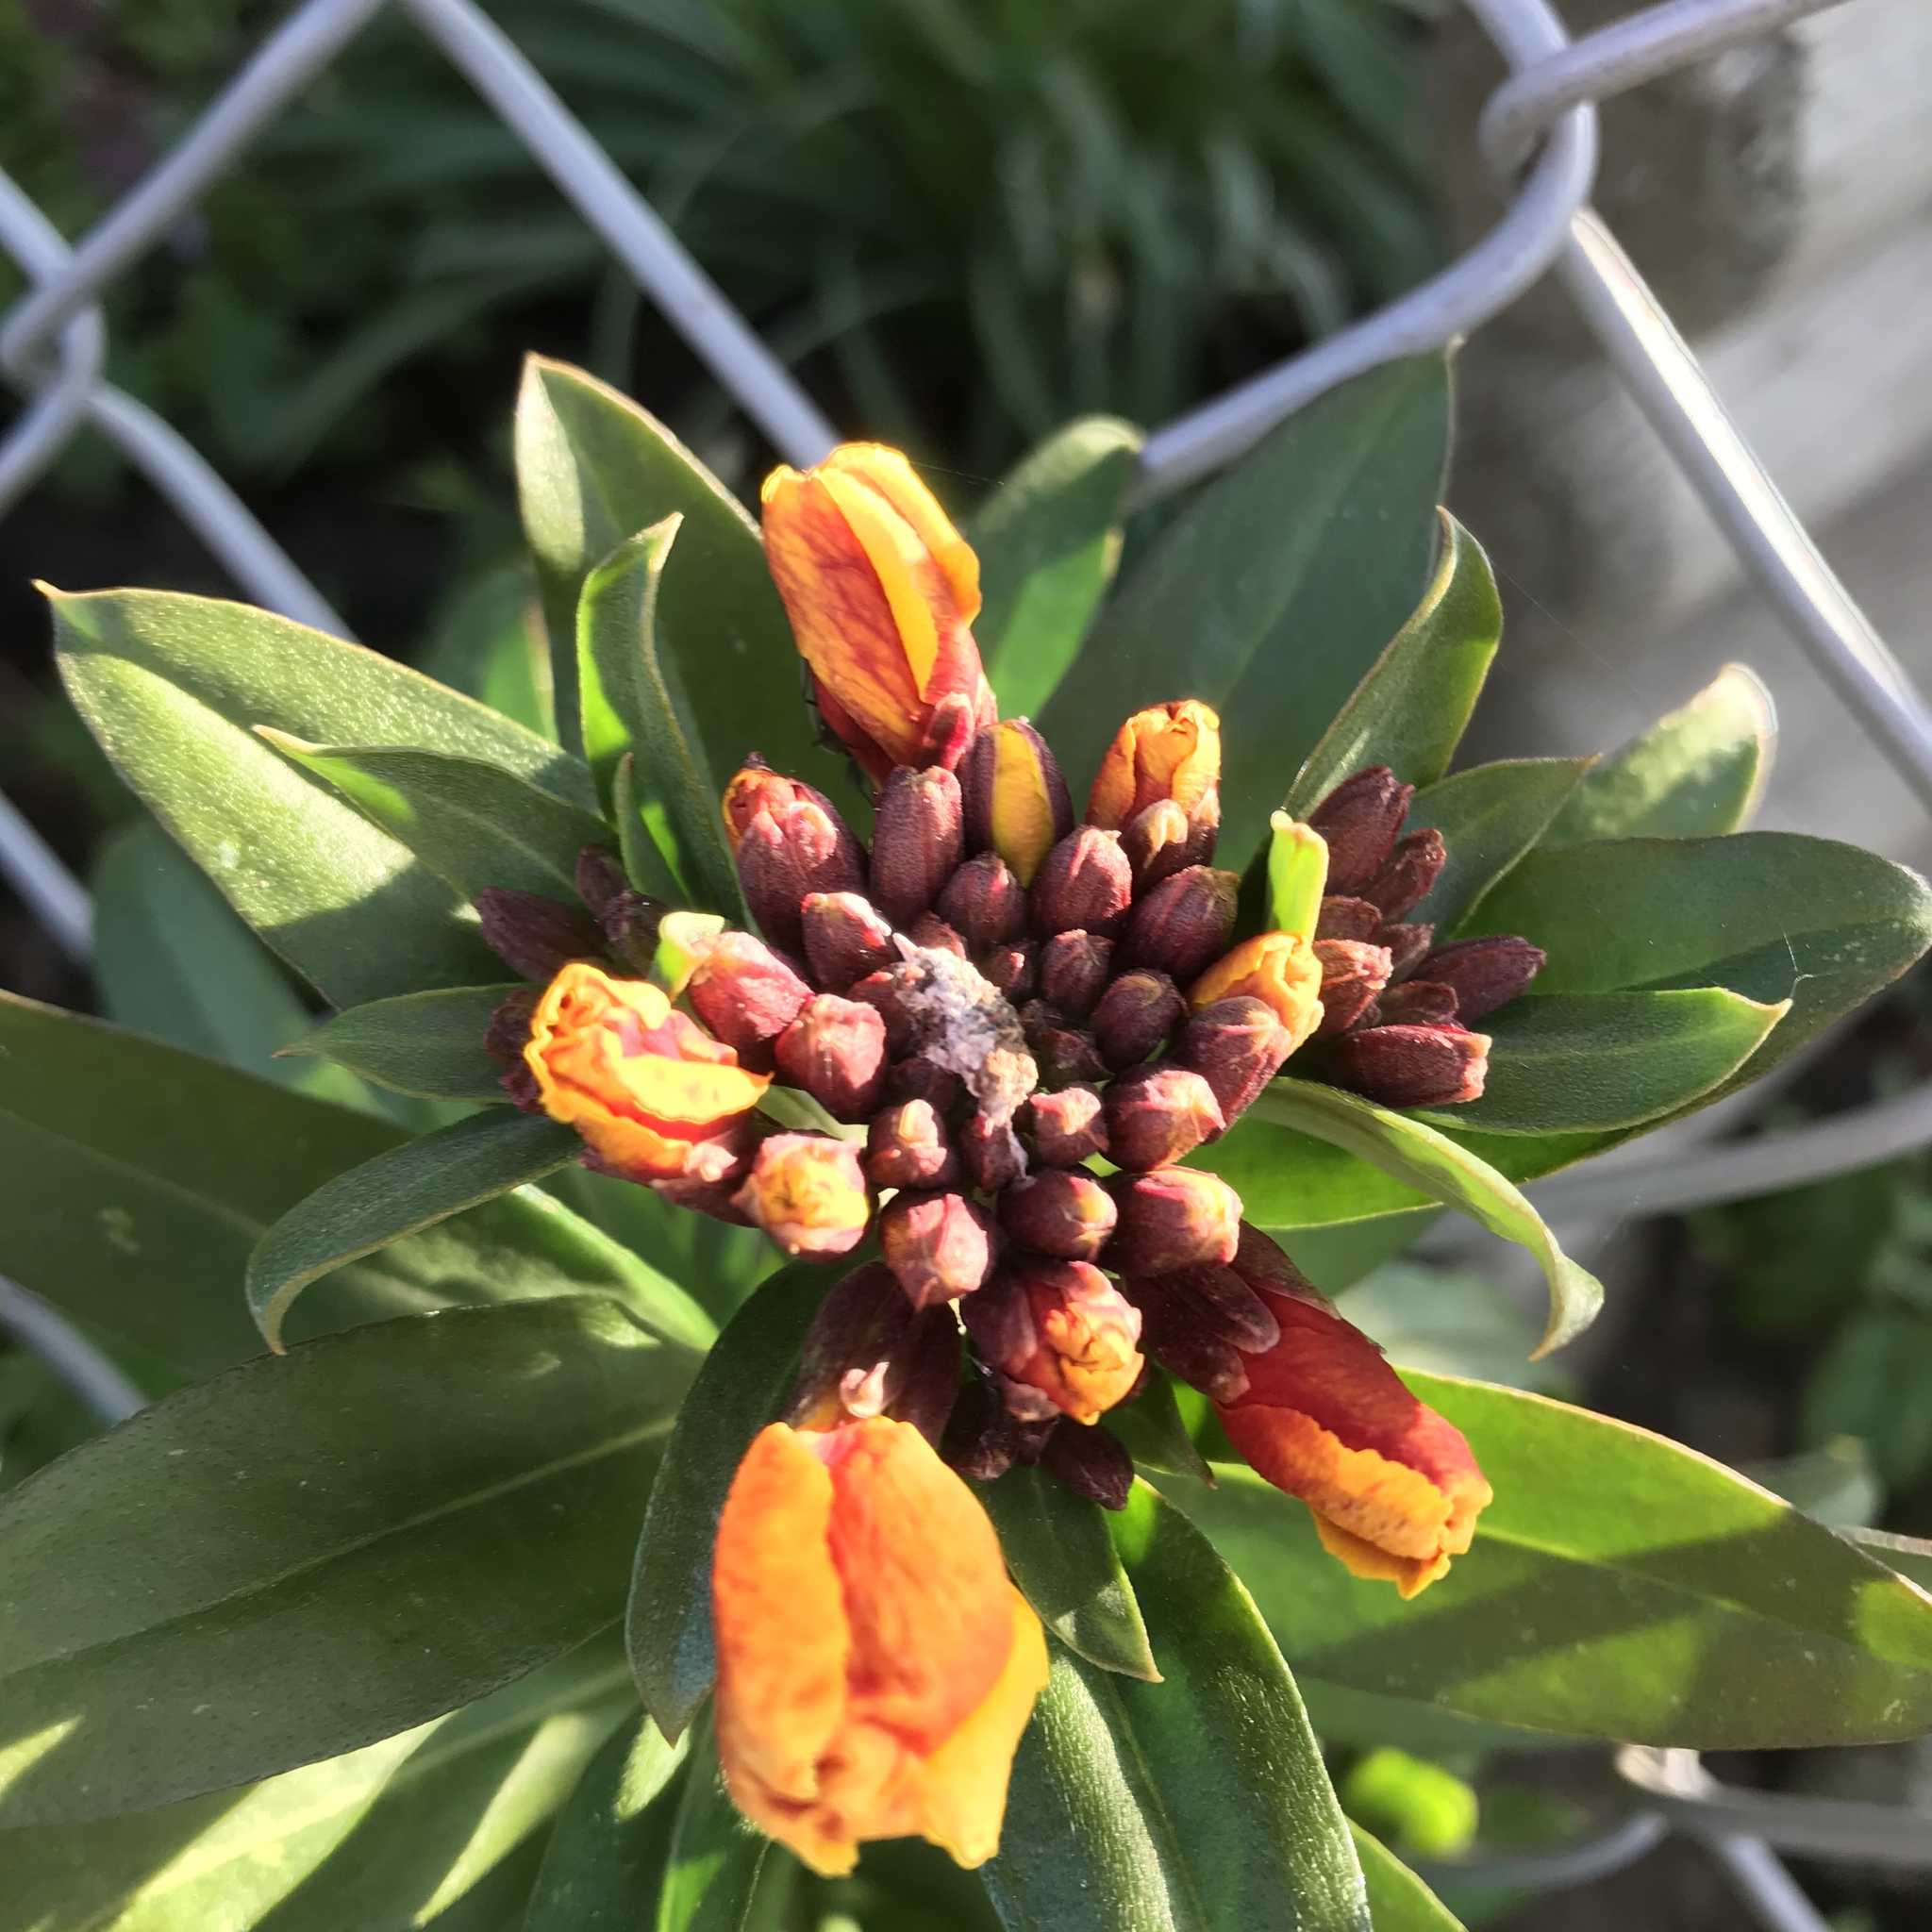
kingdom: Plantae
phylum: Tracheophyta
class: Magnoliopsida
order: Brassicales
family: Brassicaceae
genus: Erysimum
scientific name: Erysimum cheiri
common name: Wallflower
